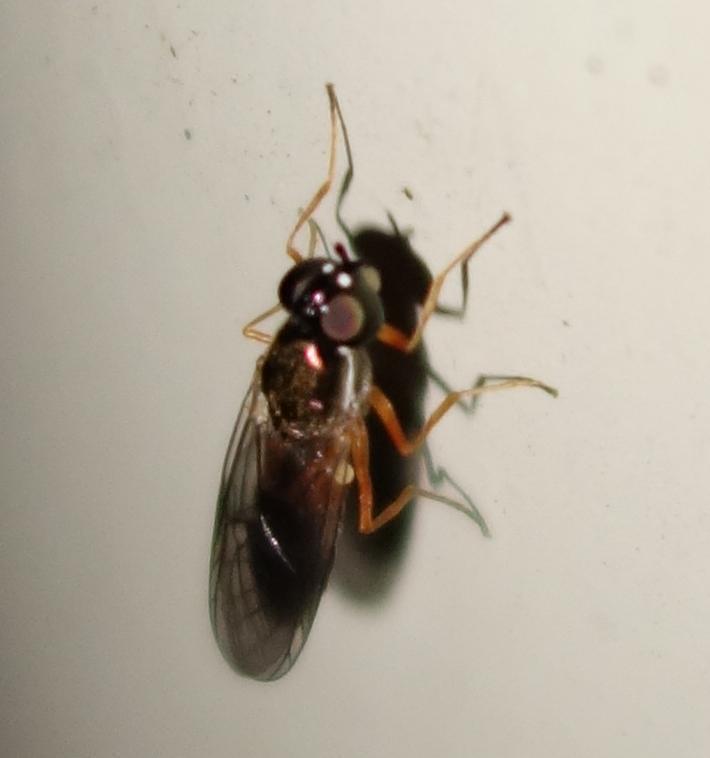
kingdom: Animalia
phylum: Arthropoda
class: Insecta
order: Diptera
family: Stratiomyidae
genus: Sargus
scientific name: Sargus bipunctatus
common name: Twin-spot centurion
